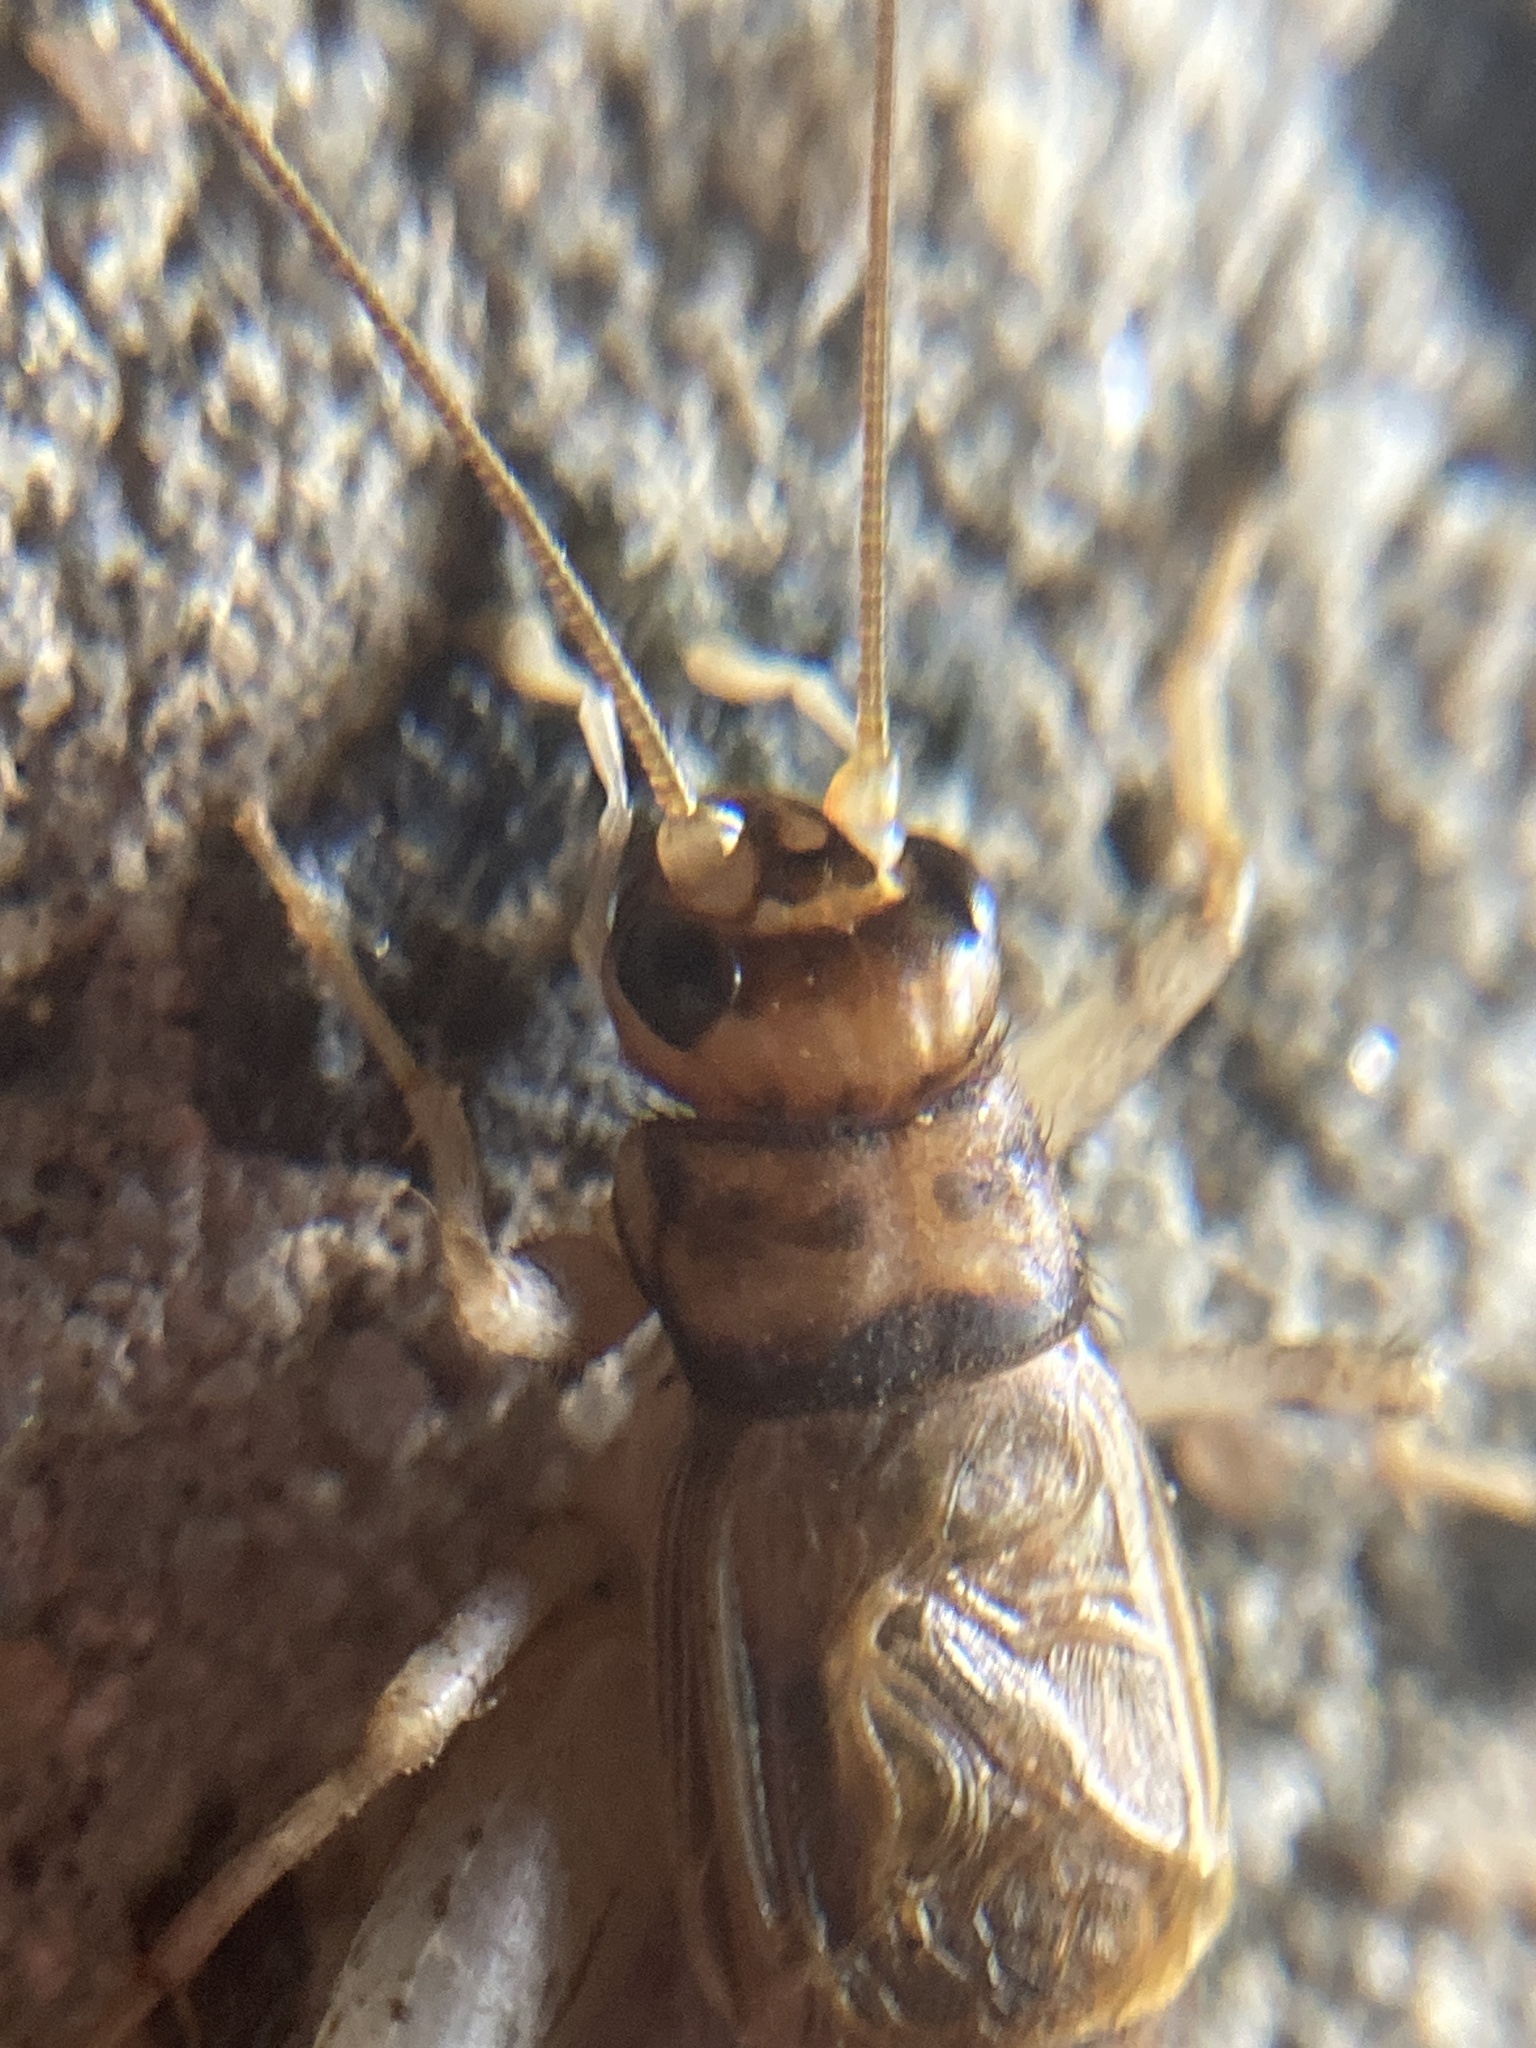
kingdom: Animalia
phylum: Arthropoda
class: Insecta
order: Orthoptera
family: Gryllidae
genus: Gryllodes
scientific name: Gryllodes sigillatus
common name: Tropical house cricket
